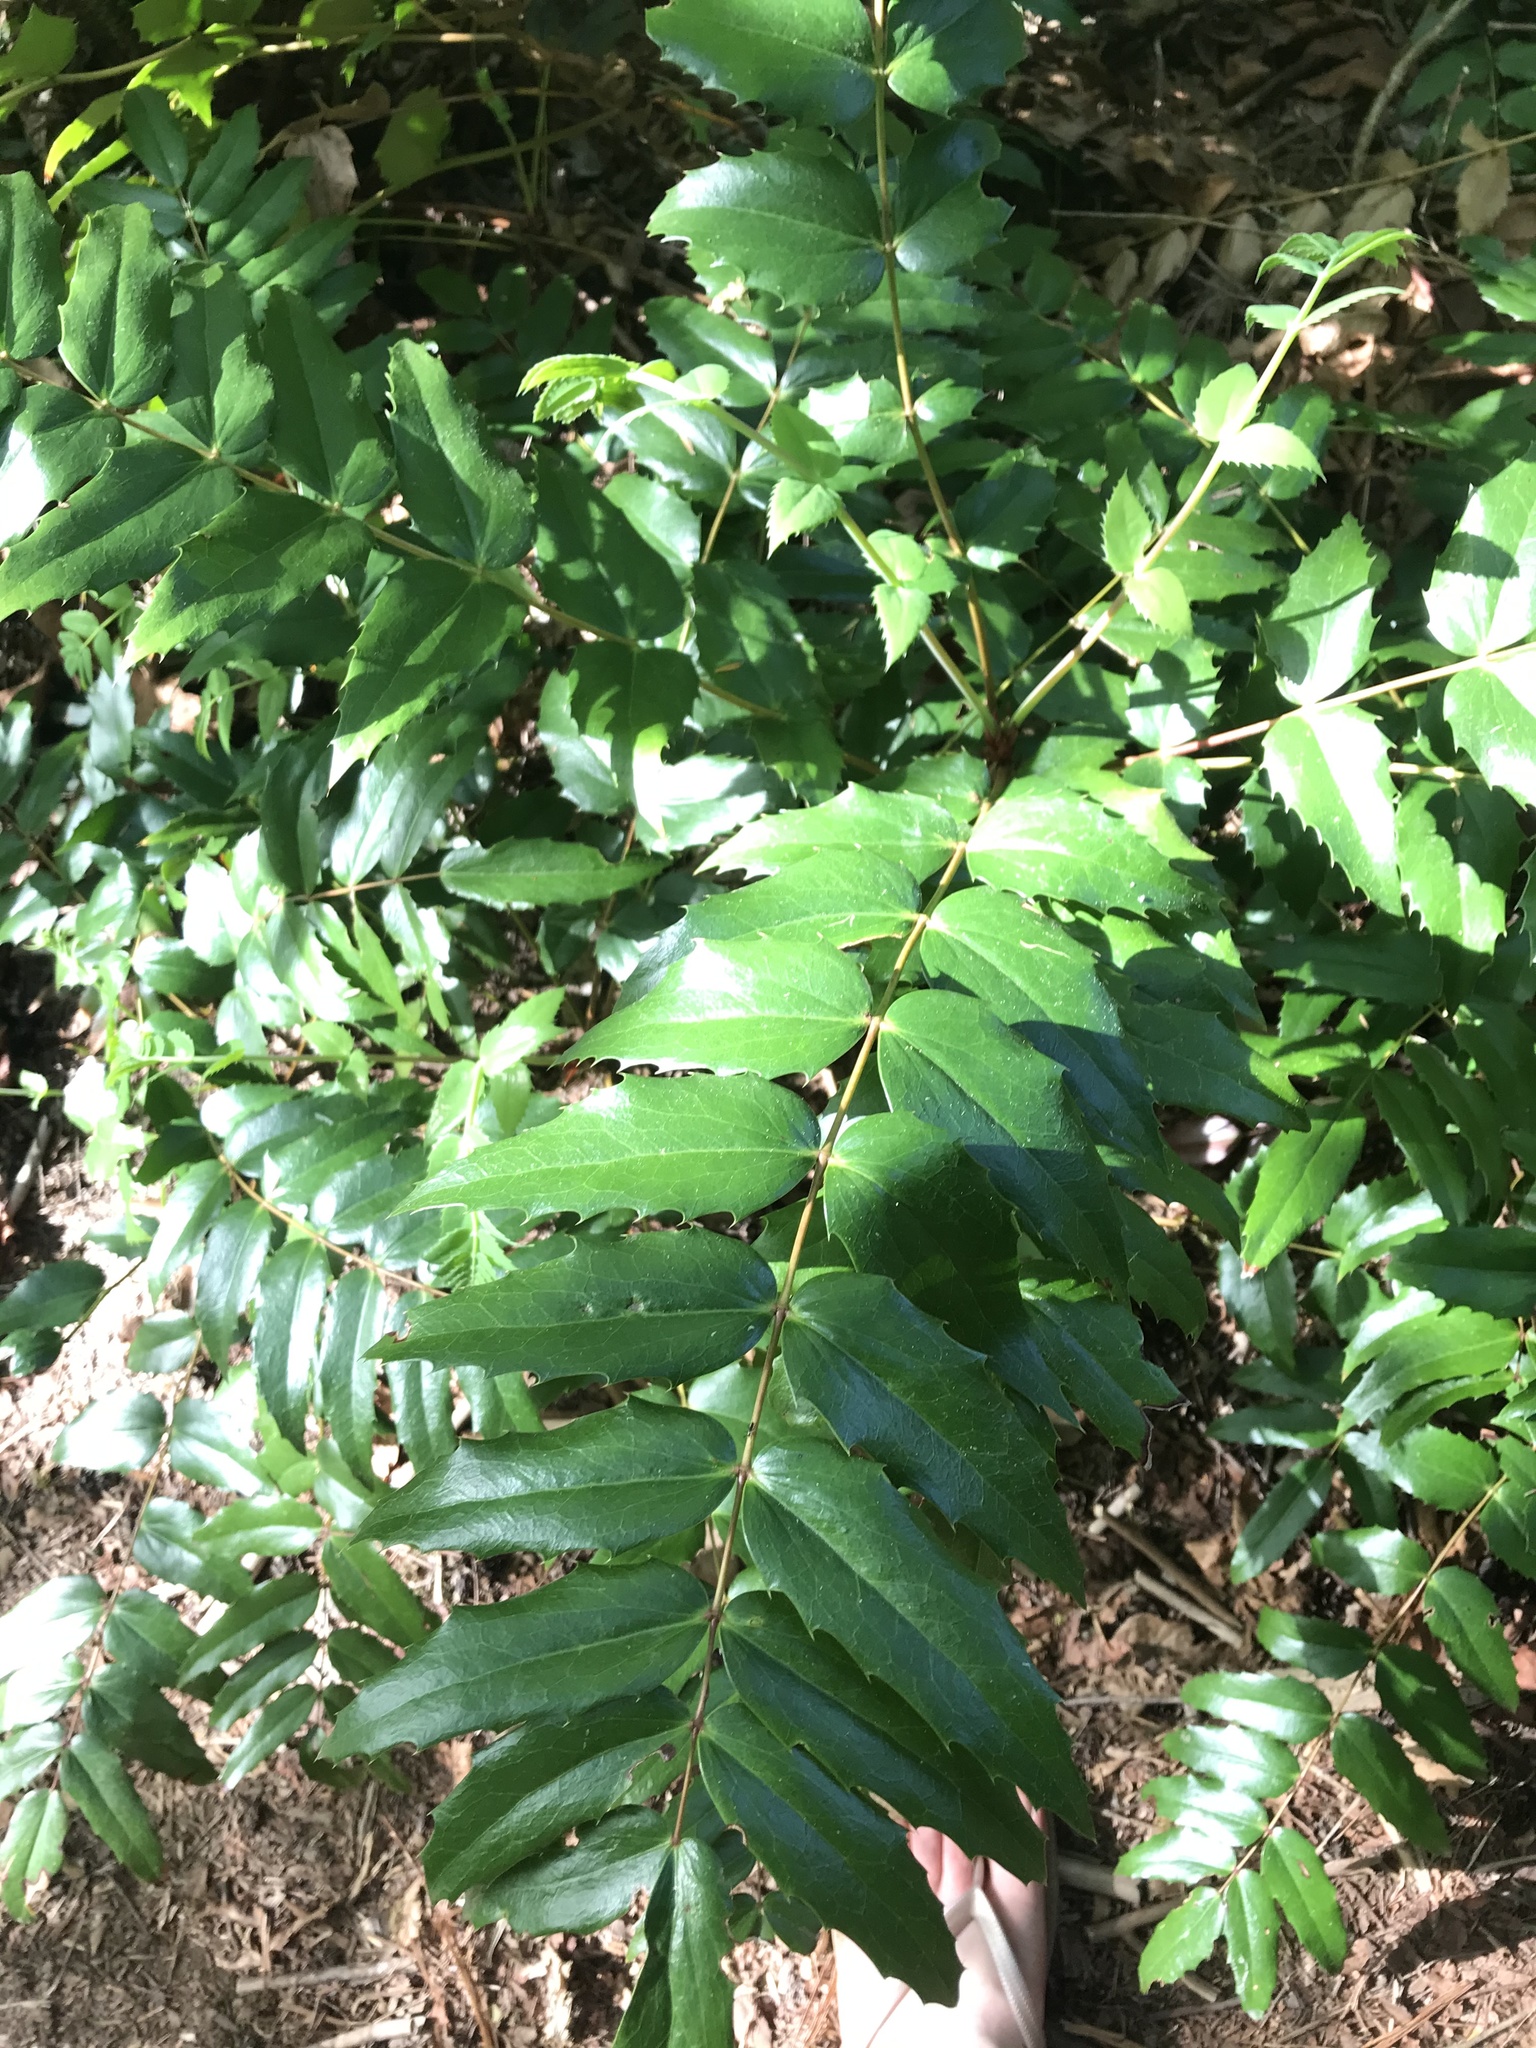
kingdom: Plantae
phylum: Tracheophyta
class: Magnoliopsida
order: Ranunculales
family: Berberidaceae
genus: Mahonia
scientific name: Mahonia nervosa
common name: Cascade oregon-grape
